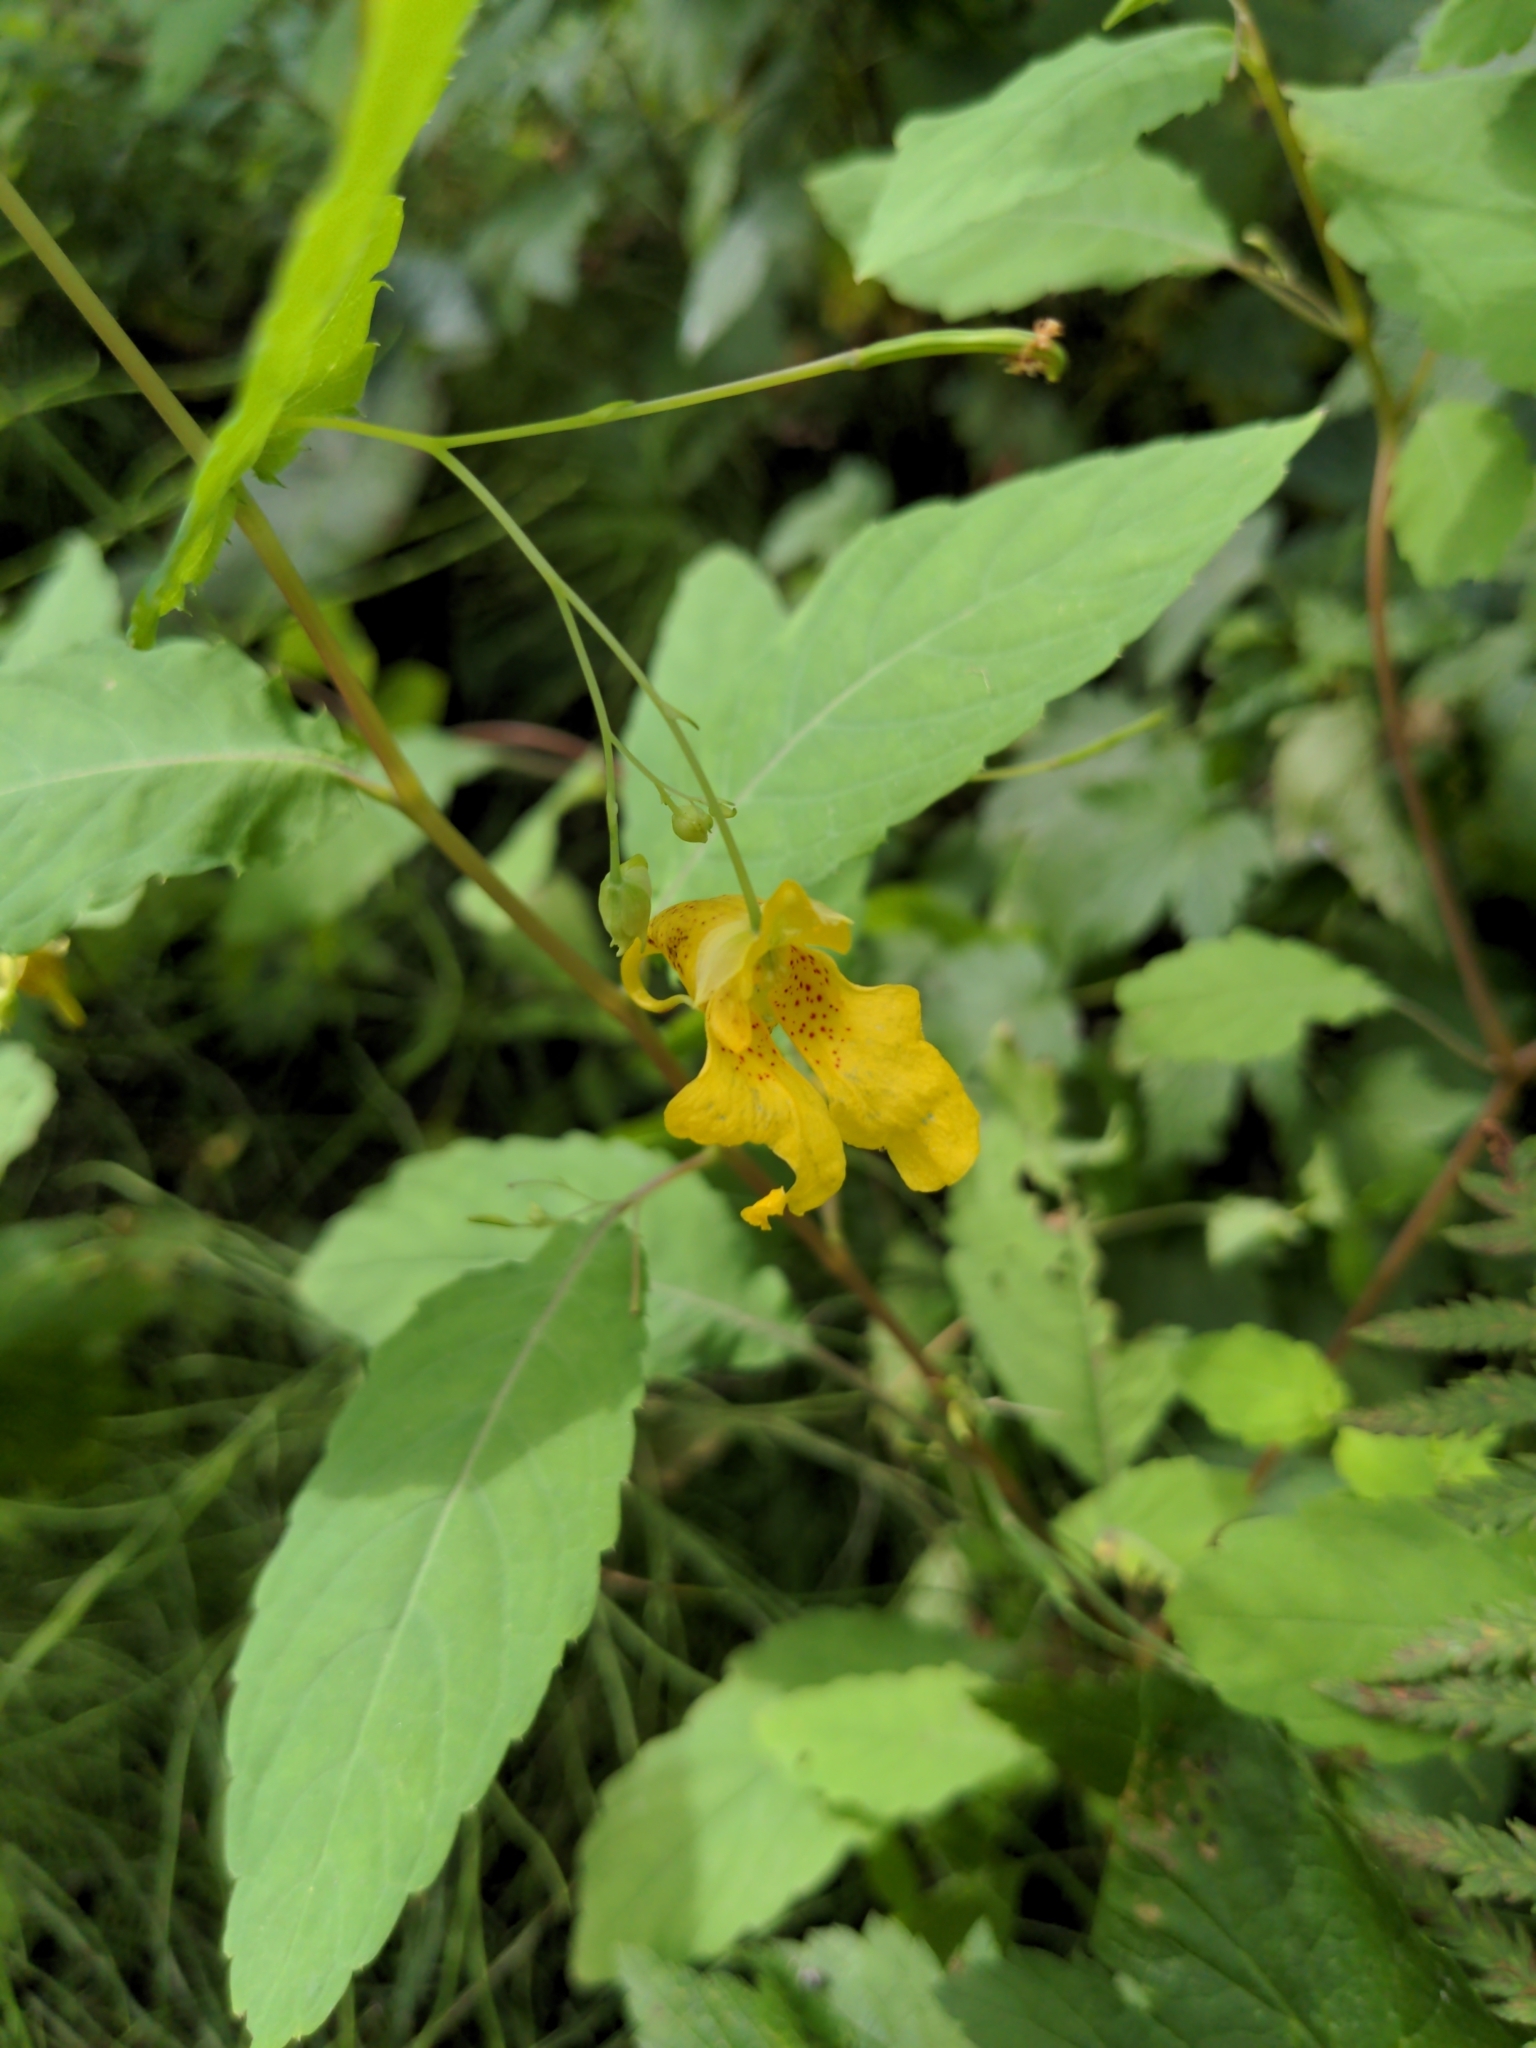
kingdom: Plantae
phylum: Tracheophyta
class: Magnoliopsida
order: Ericales
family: Balsaminaceae
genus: Impatiens
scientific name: Impatiens noli-tangere
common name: Touch-me-not balsam
